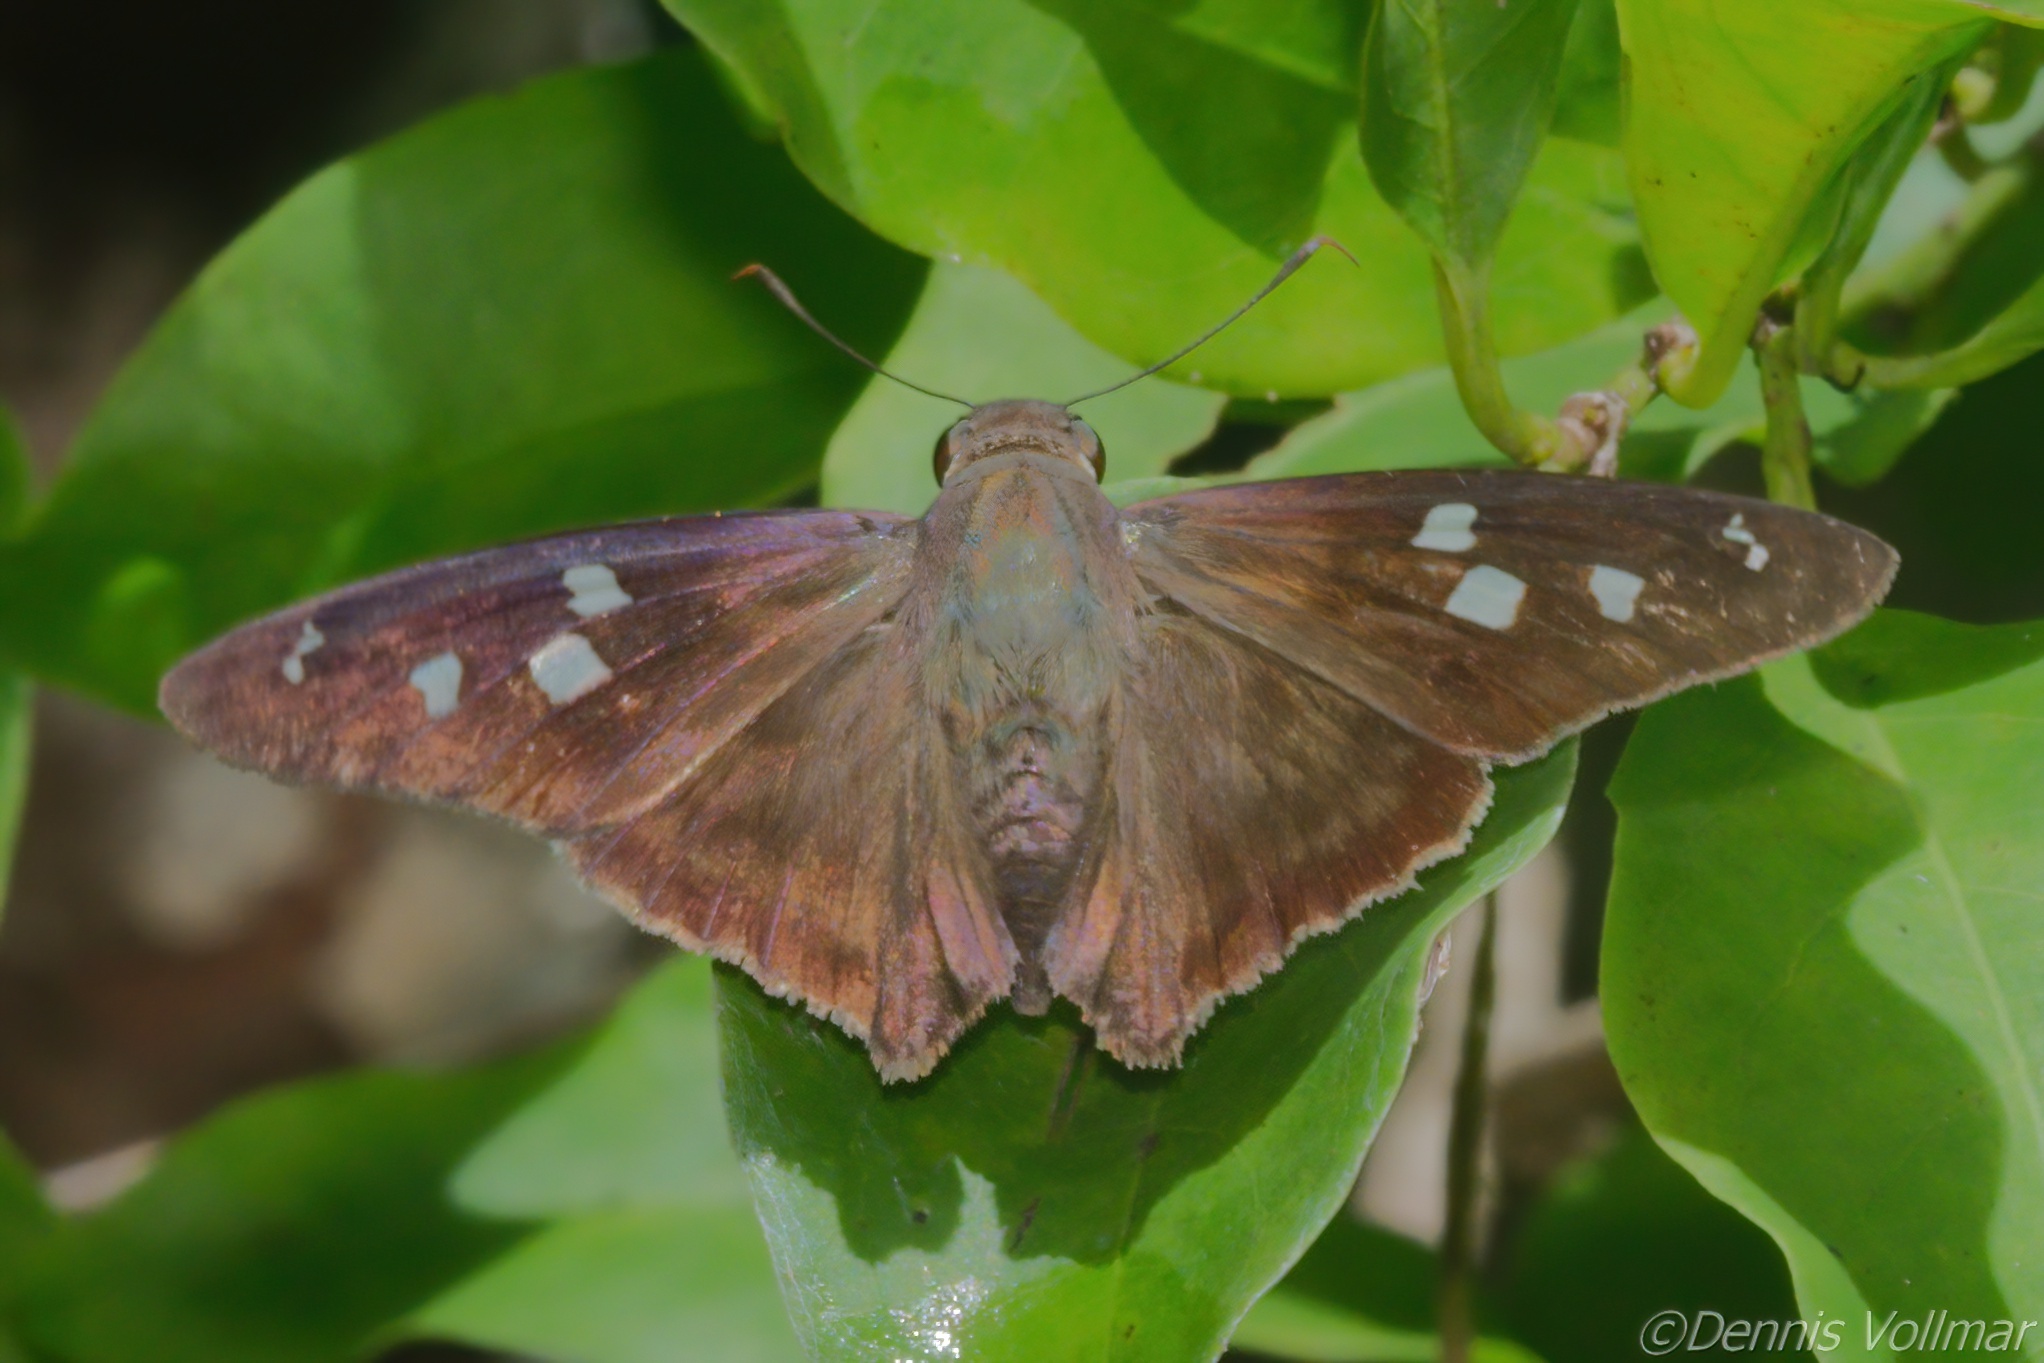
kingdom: Animalia
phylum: Arthropoda
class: Insecta
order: Lepidoptera
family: Hesperiidae
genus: Polygonus
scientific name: Polygonus leo
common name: Hammoch skipper
